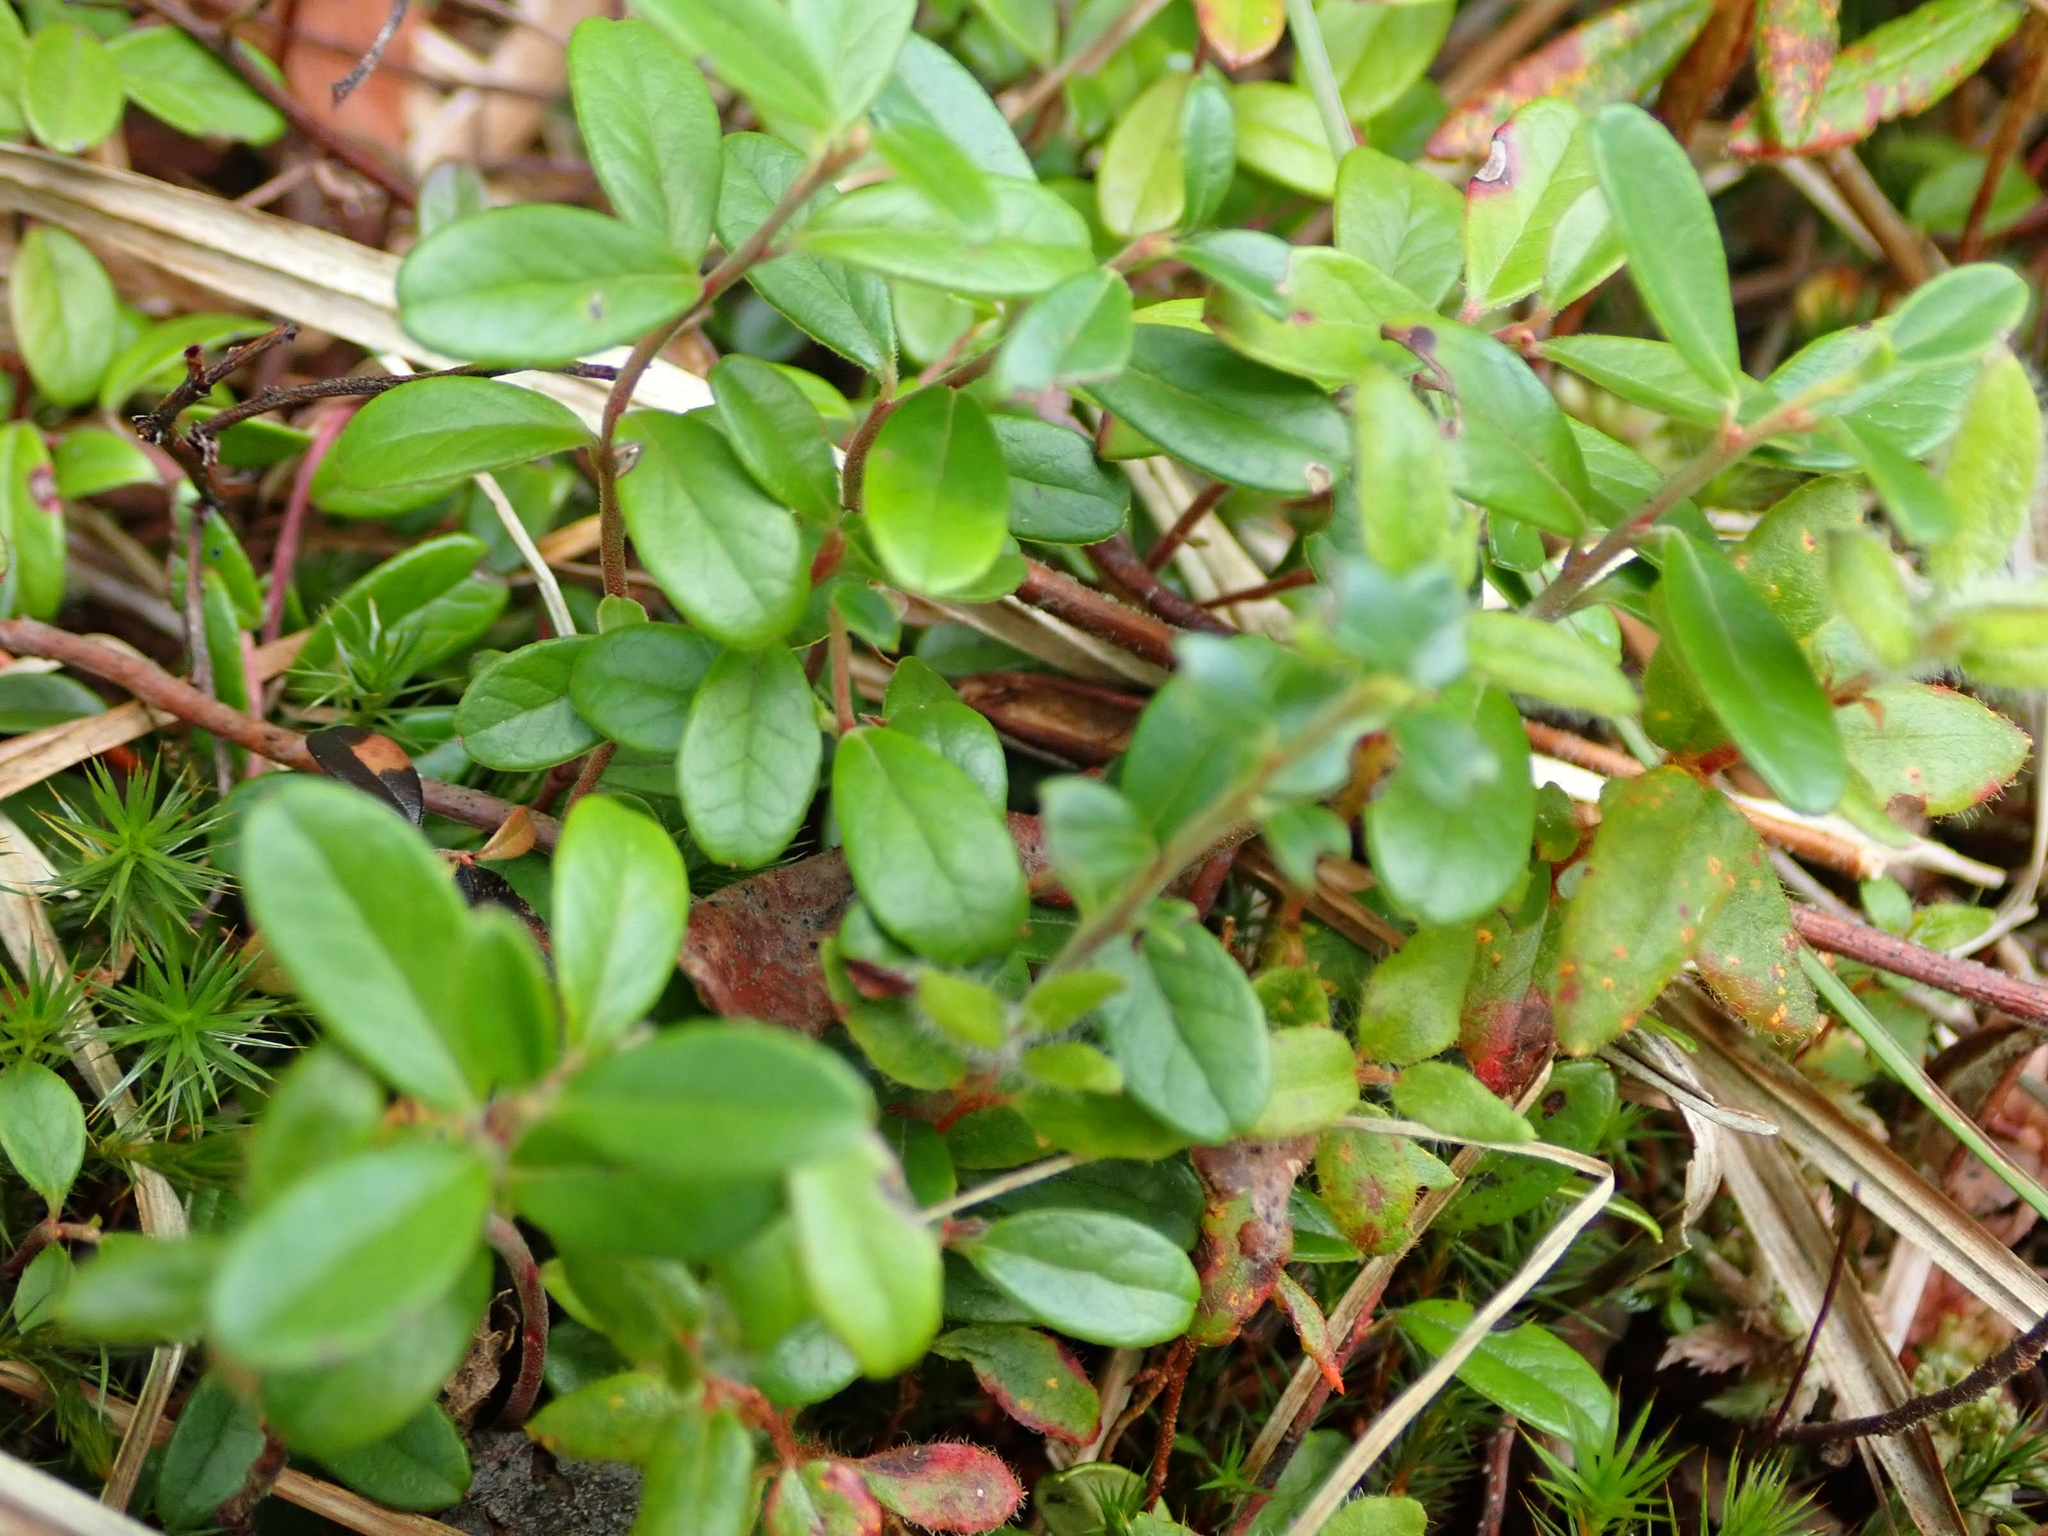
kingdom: Plantae
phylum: Tracheophyta
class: Magnoliopsida
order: Ericales
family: Ericaceae
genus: Vaccinium
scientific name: Vaccinium vitis-idaea
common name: Cowberry
